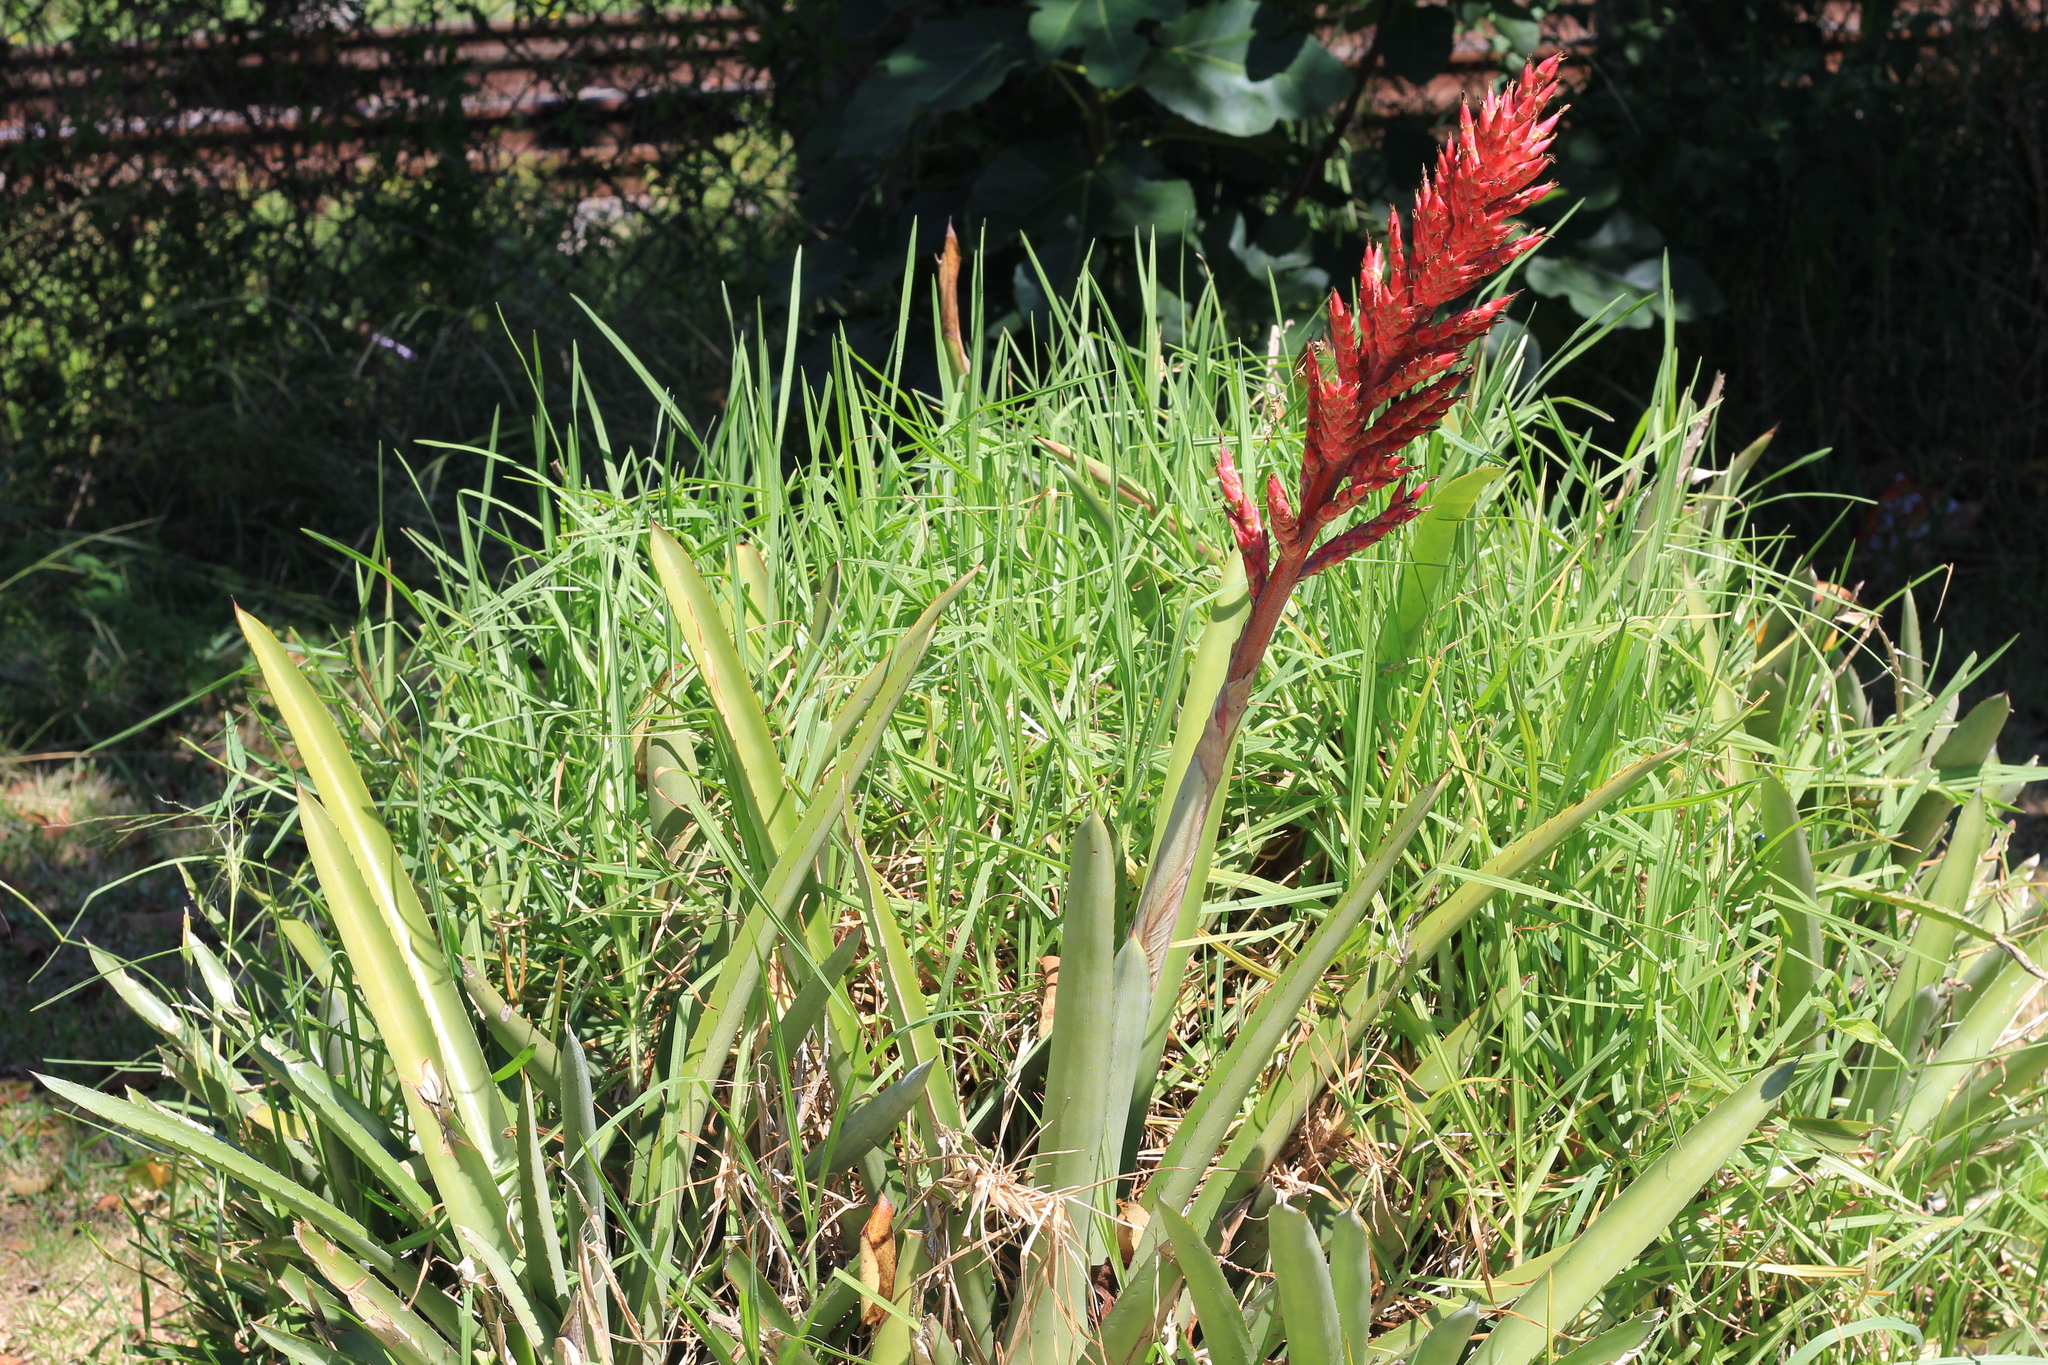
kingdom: Plantae
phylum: Tracheophyta
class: Liliopsida
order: Poales
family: Bromeliaceae
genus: Aechmea
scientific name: Aechmea distichantha
